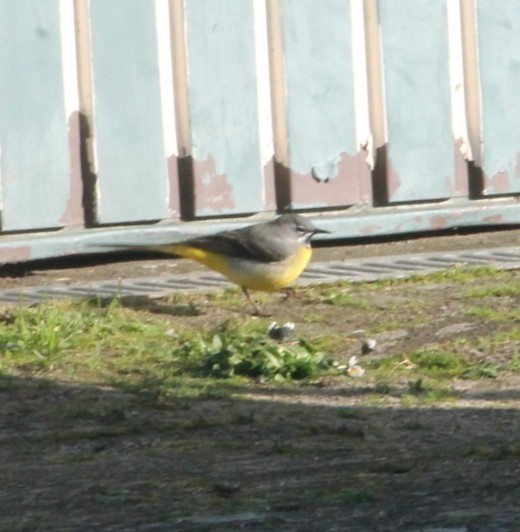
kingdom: Animalia
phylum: Chordata
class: Aves
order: Passeriformes
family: Motacillidae
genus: Motacilla
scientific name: Motacilla cinerea
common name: Grey wagtail
